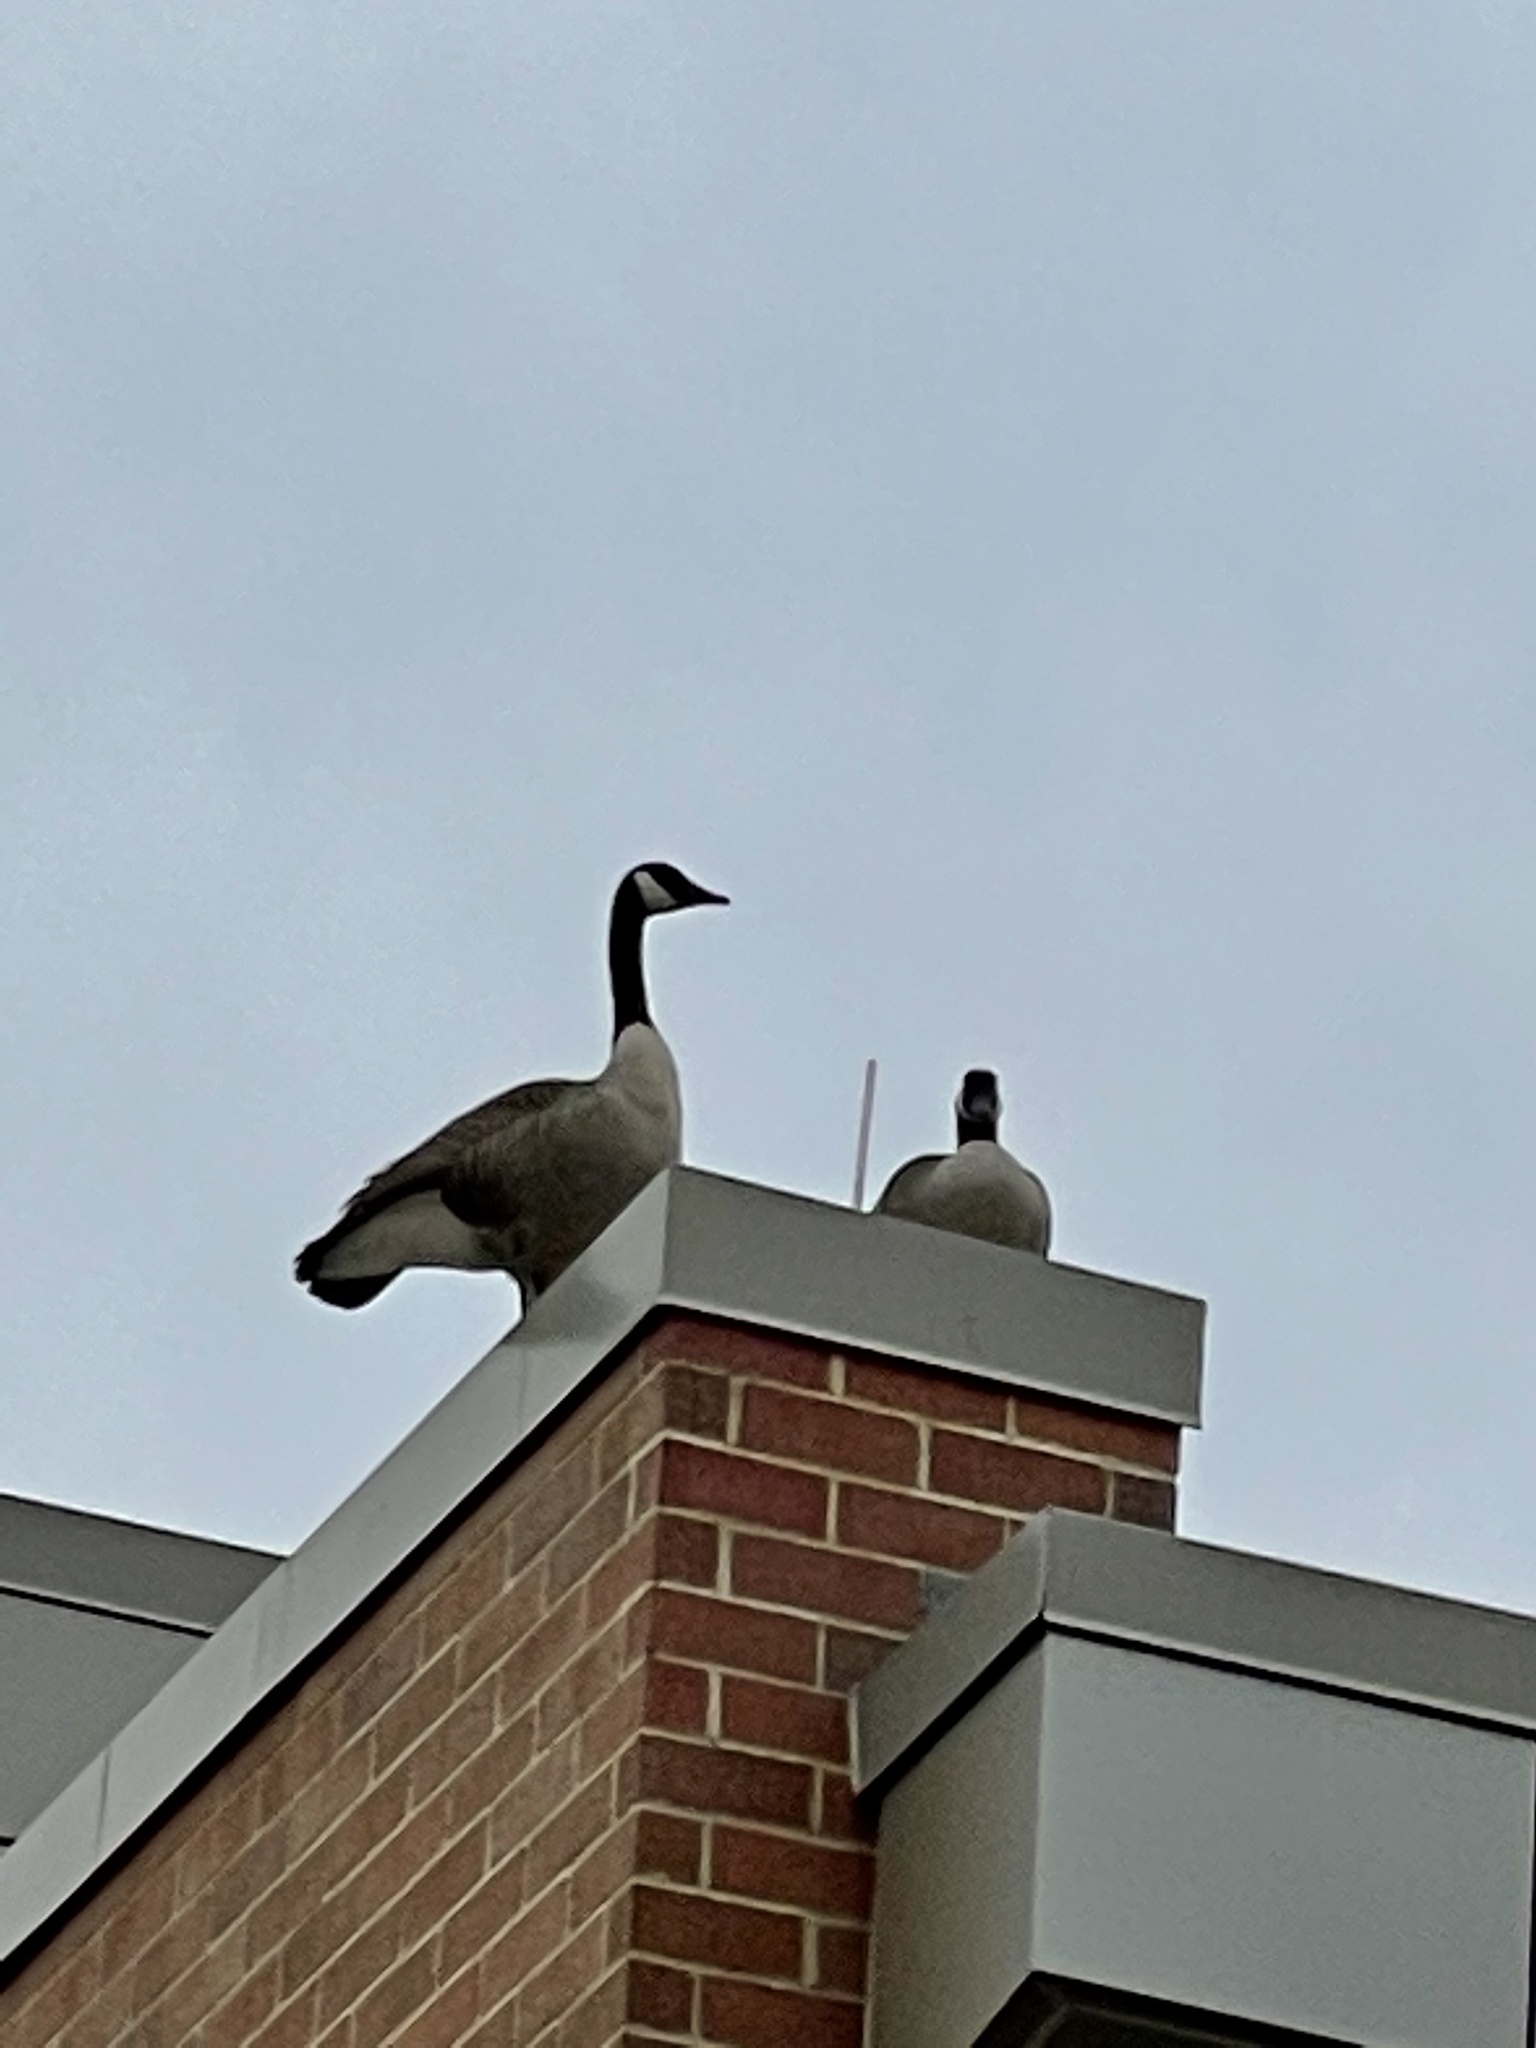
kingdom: Animalia
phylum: Chordata
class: Aves
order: Anseriformes
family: Anatidae
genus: Branta
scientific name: Branta canadensis
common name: Canada goose
